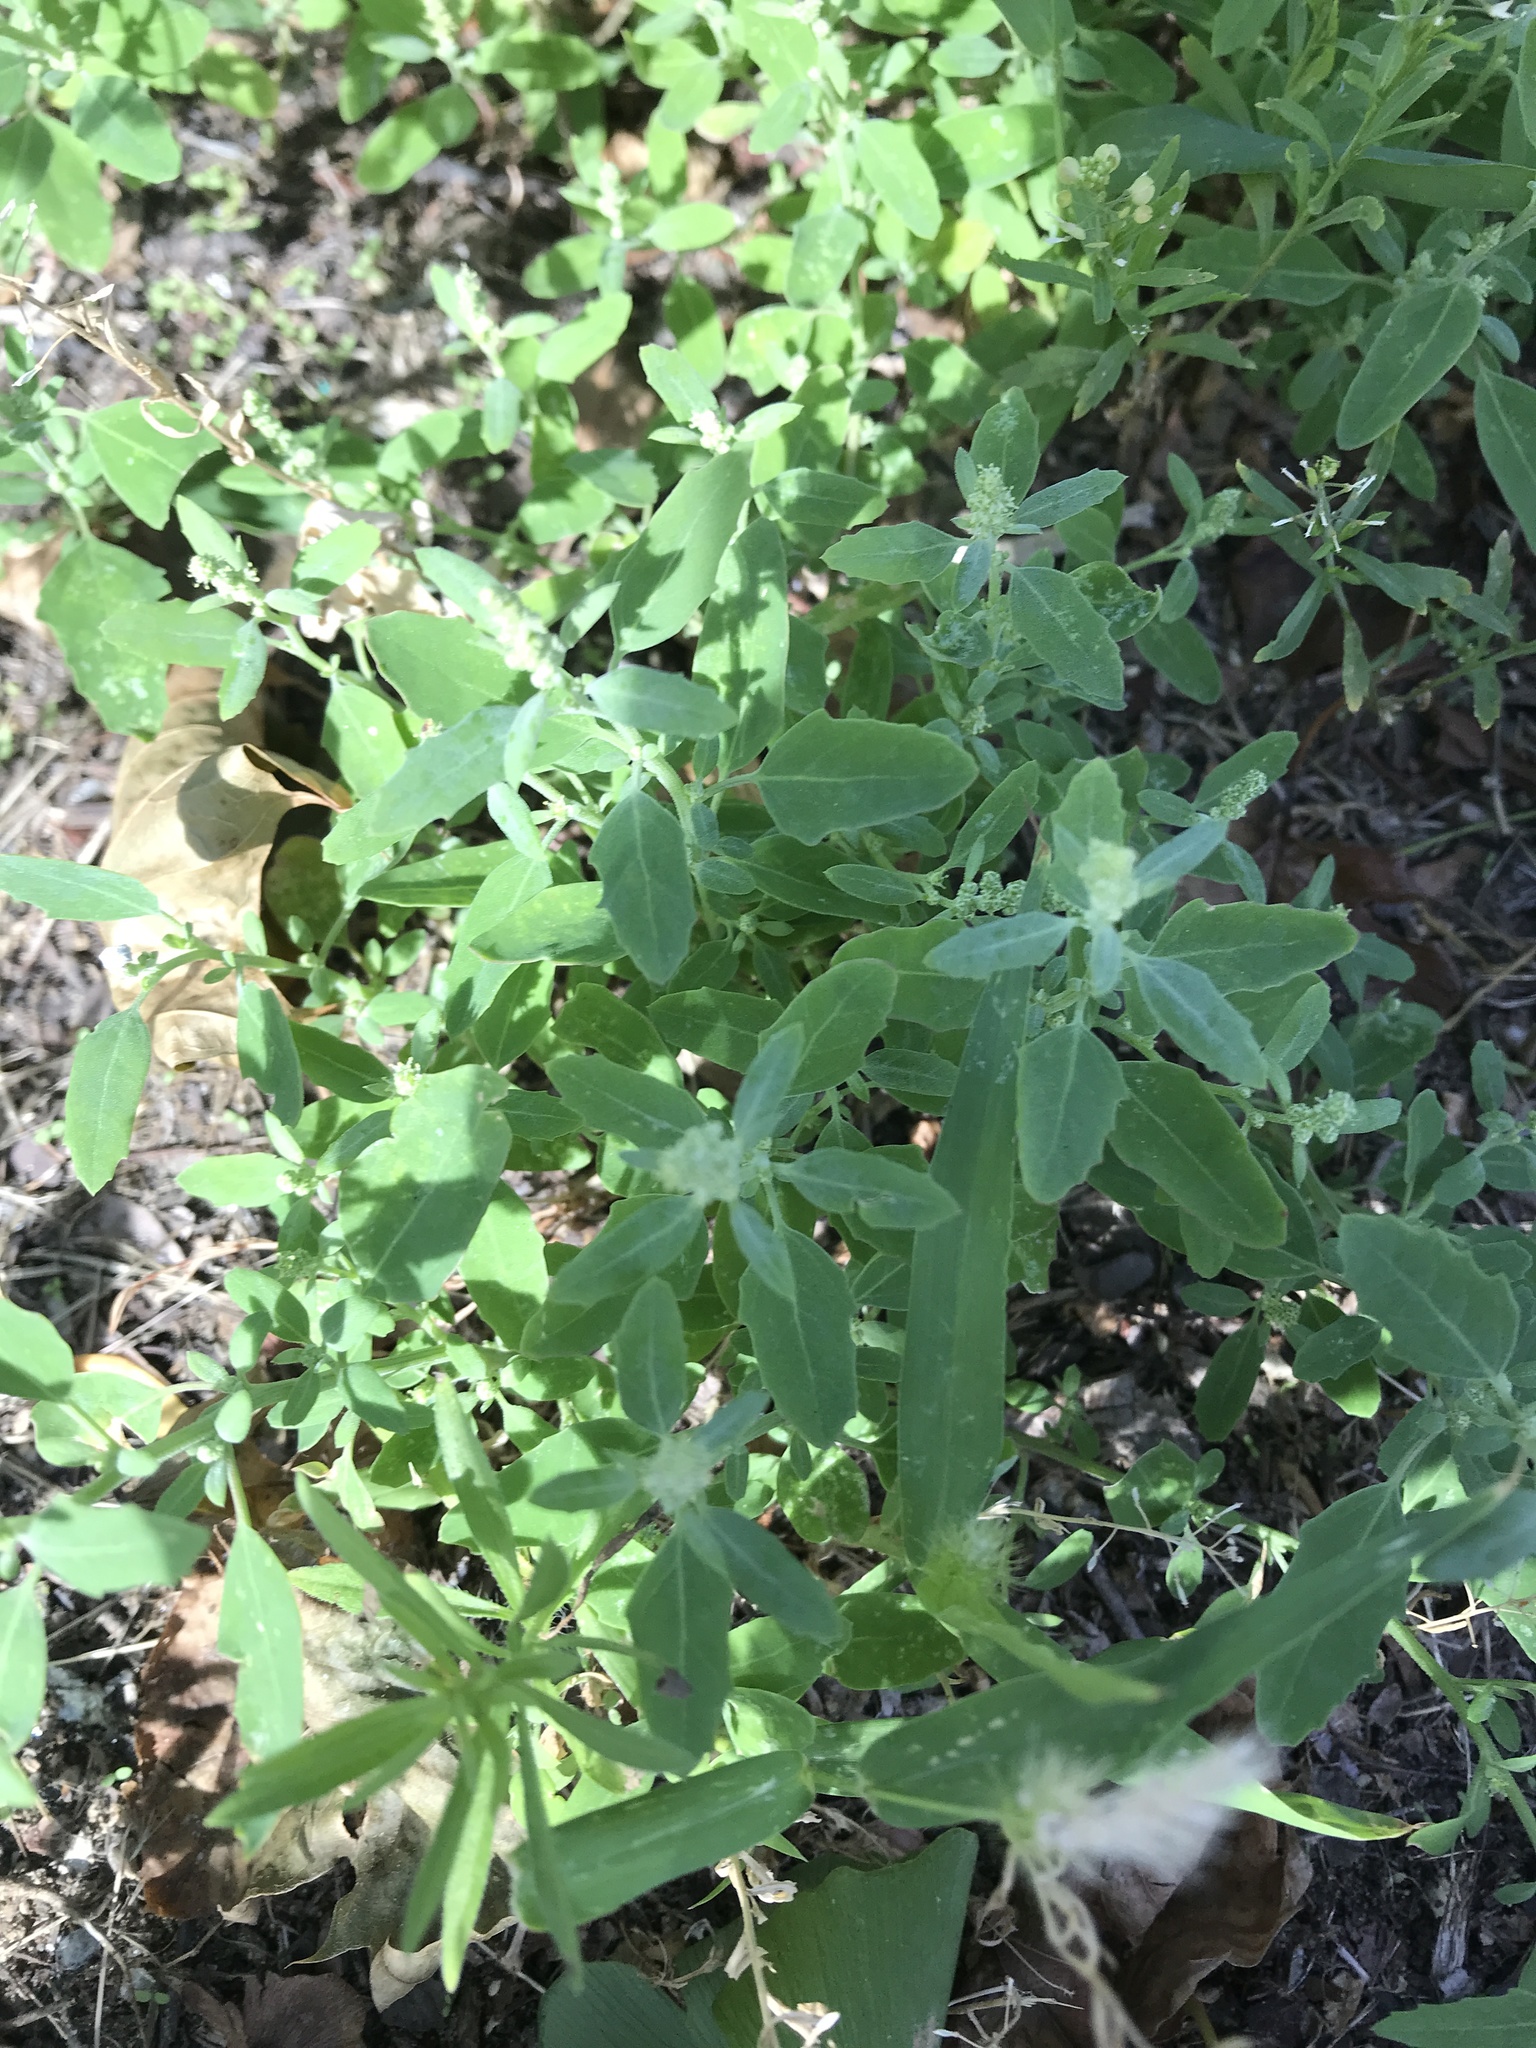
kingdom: Plantae
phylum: Tracheophyta
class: Magnoliopsida
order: Caryophyllales
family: Amaranthaceae
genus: Chenopodium
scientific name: Chenopodium album
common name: Fat-hen
